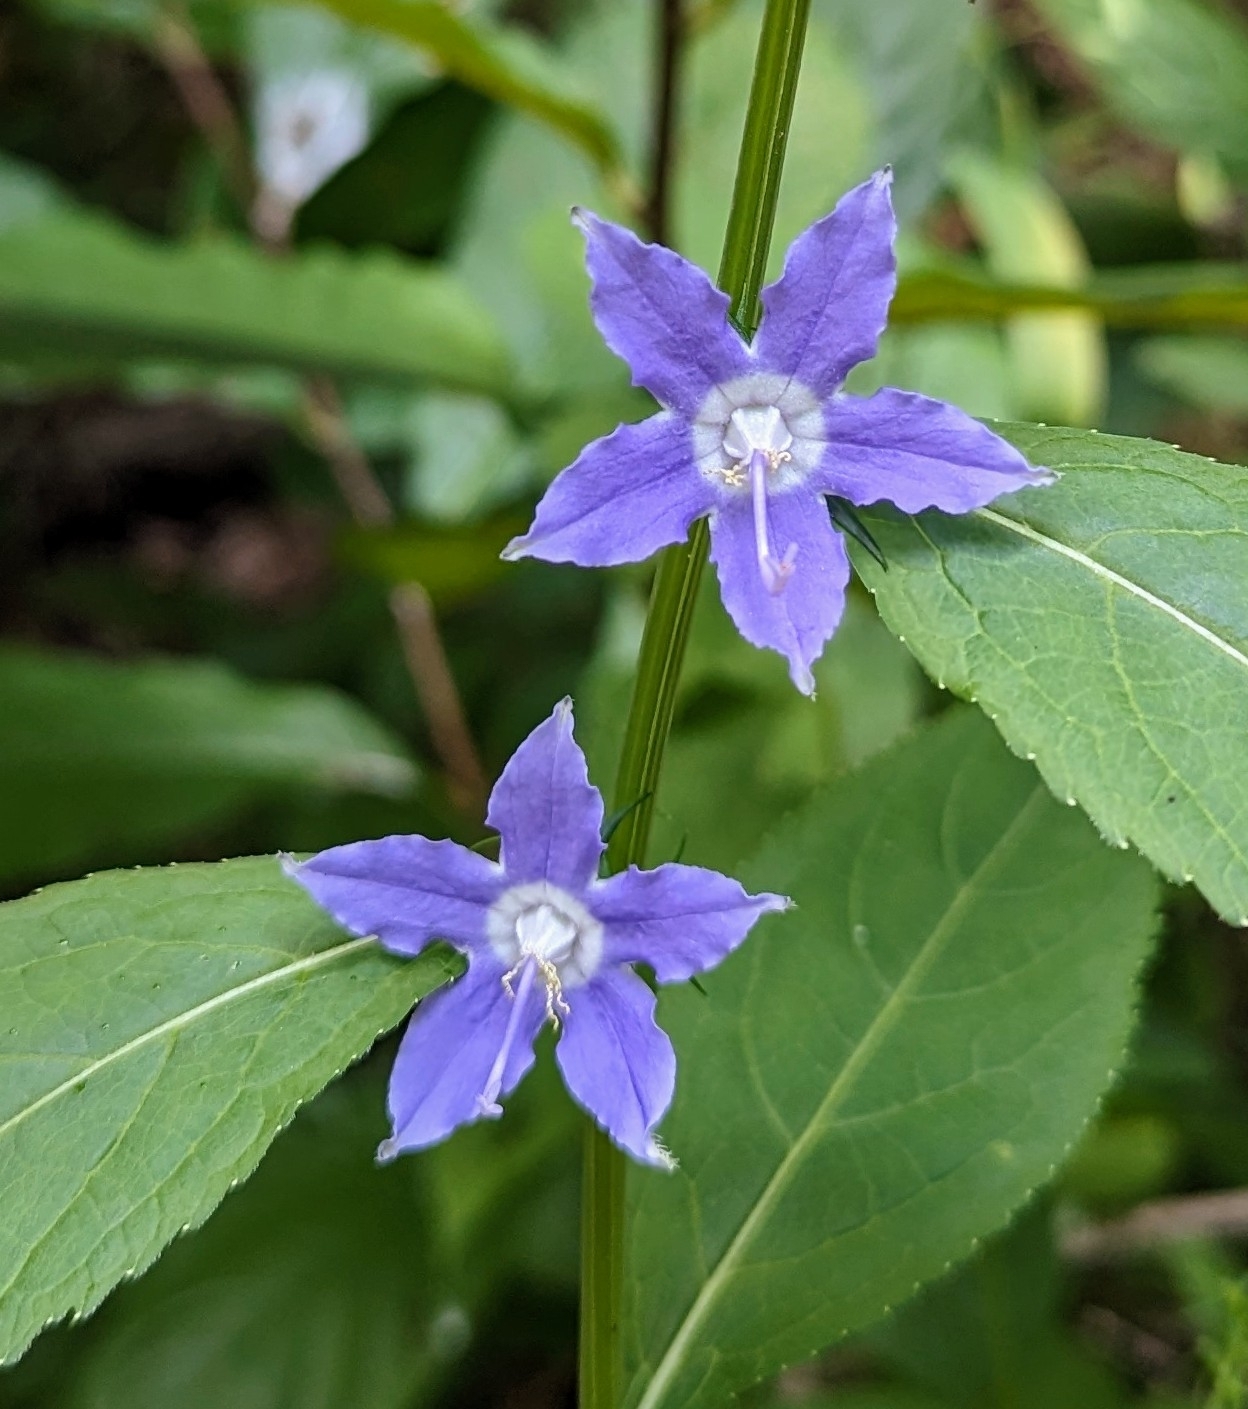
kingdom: Plantae
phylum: Tracheophyta
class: Magnoliopsida
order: Asterales
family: Campanulaceae
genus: Campanulastrum
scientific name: Campanulastrum americanum
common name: American bellflower
